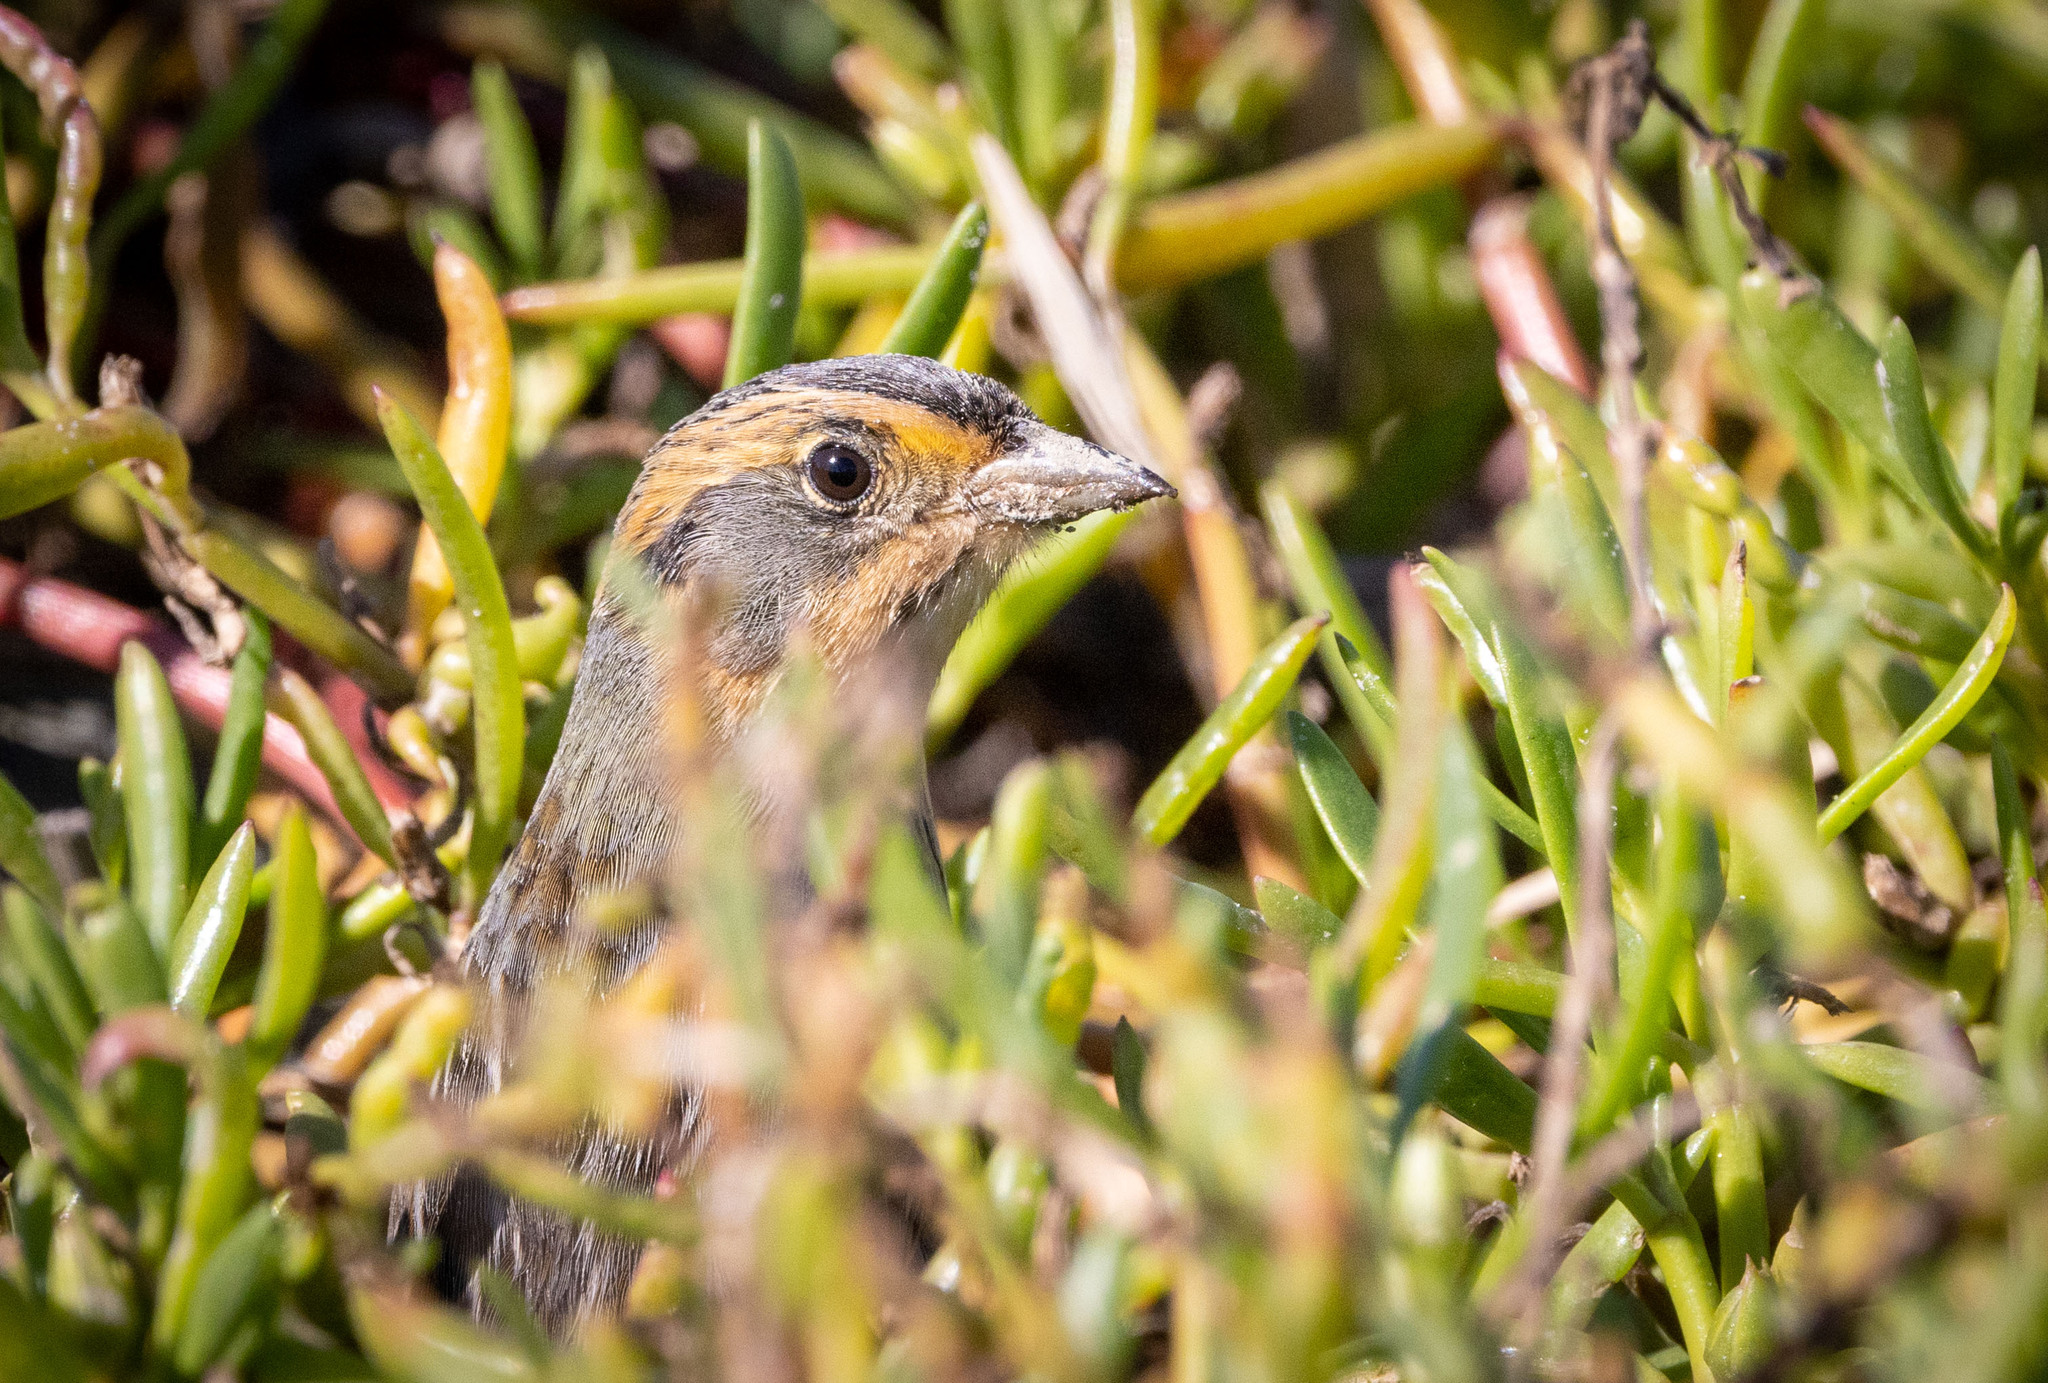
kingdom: Animalia
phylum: Chordata
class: Aves
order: Passeriformes
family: Passerellidae
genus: Ammospiza
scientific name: Ammospiza caudacuta
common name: Saltmarsh sparrow
